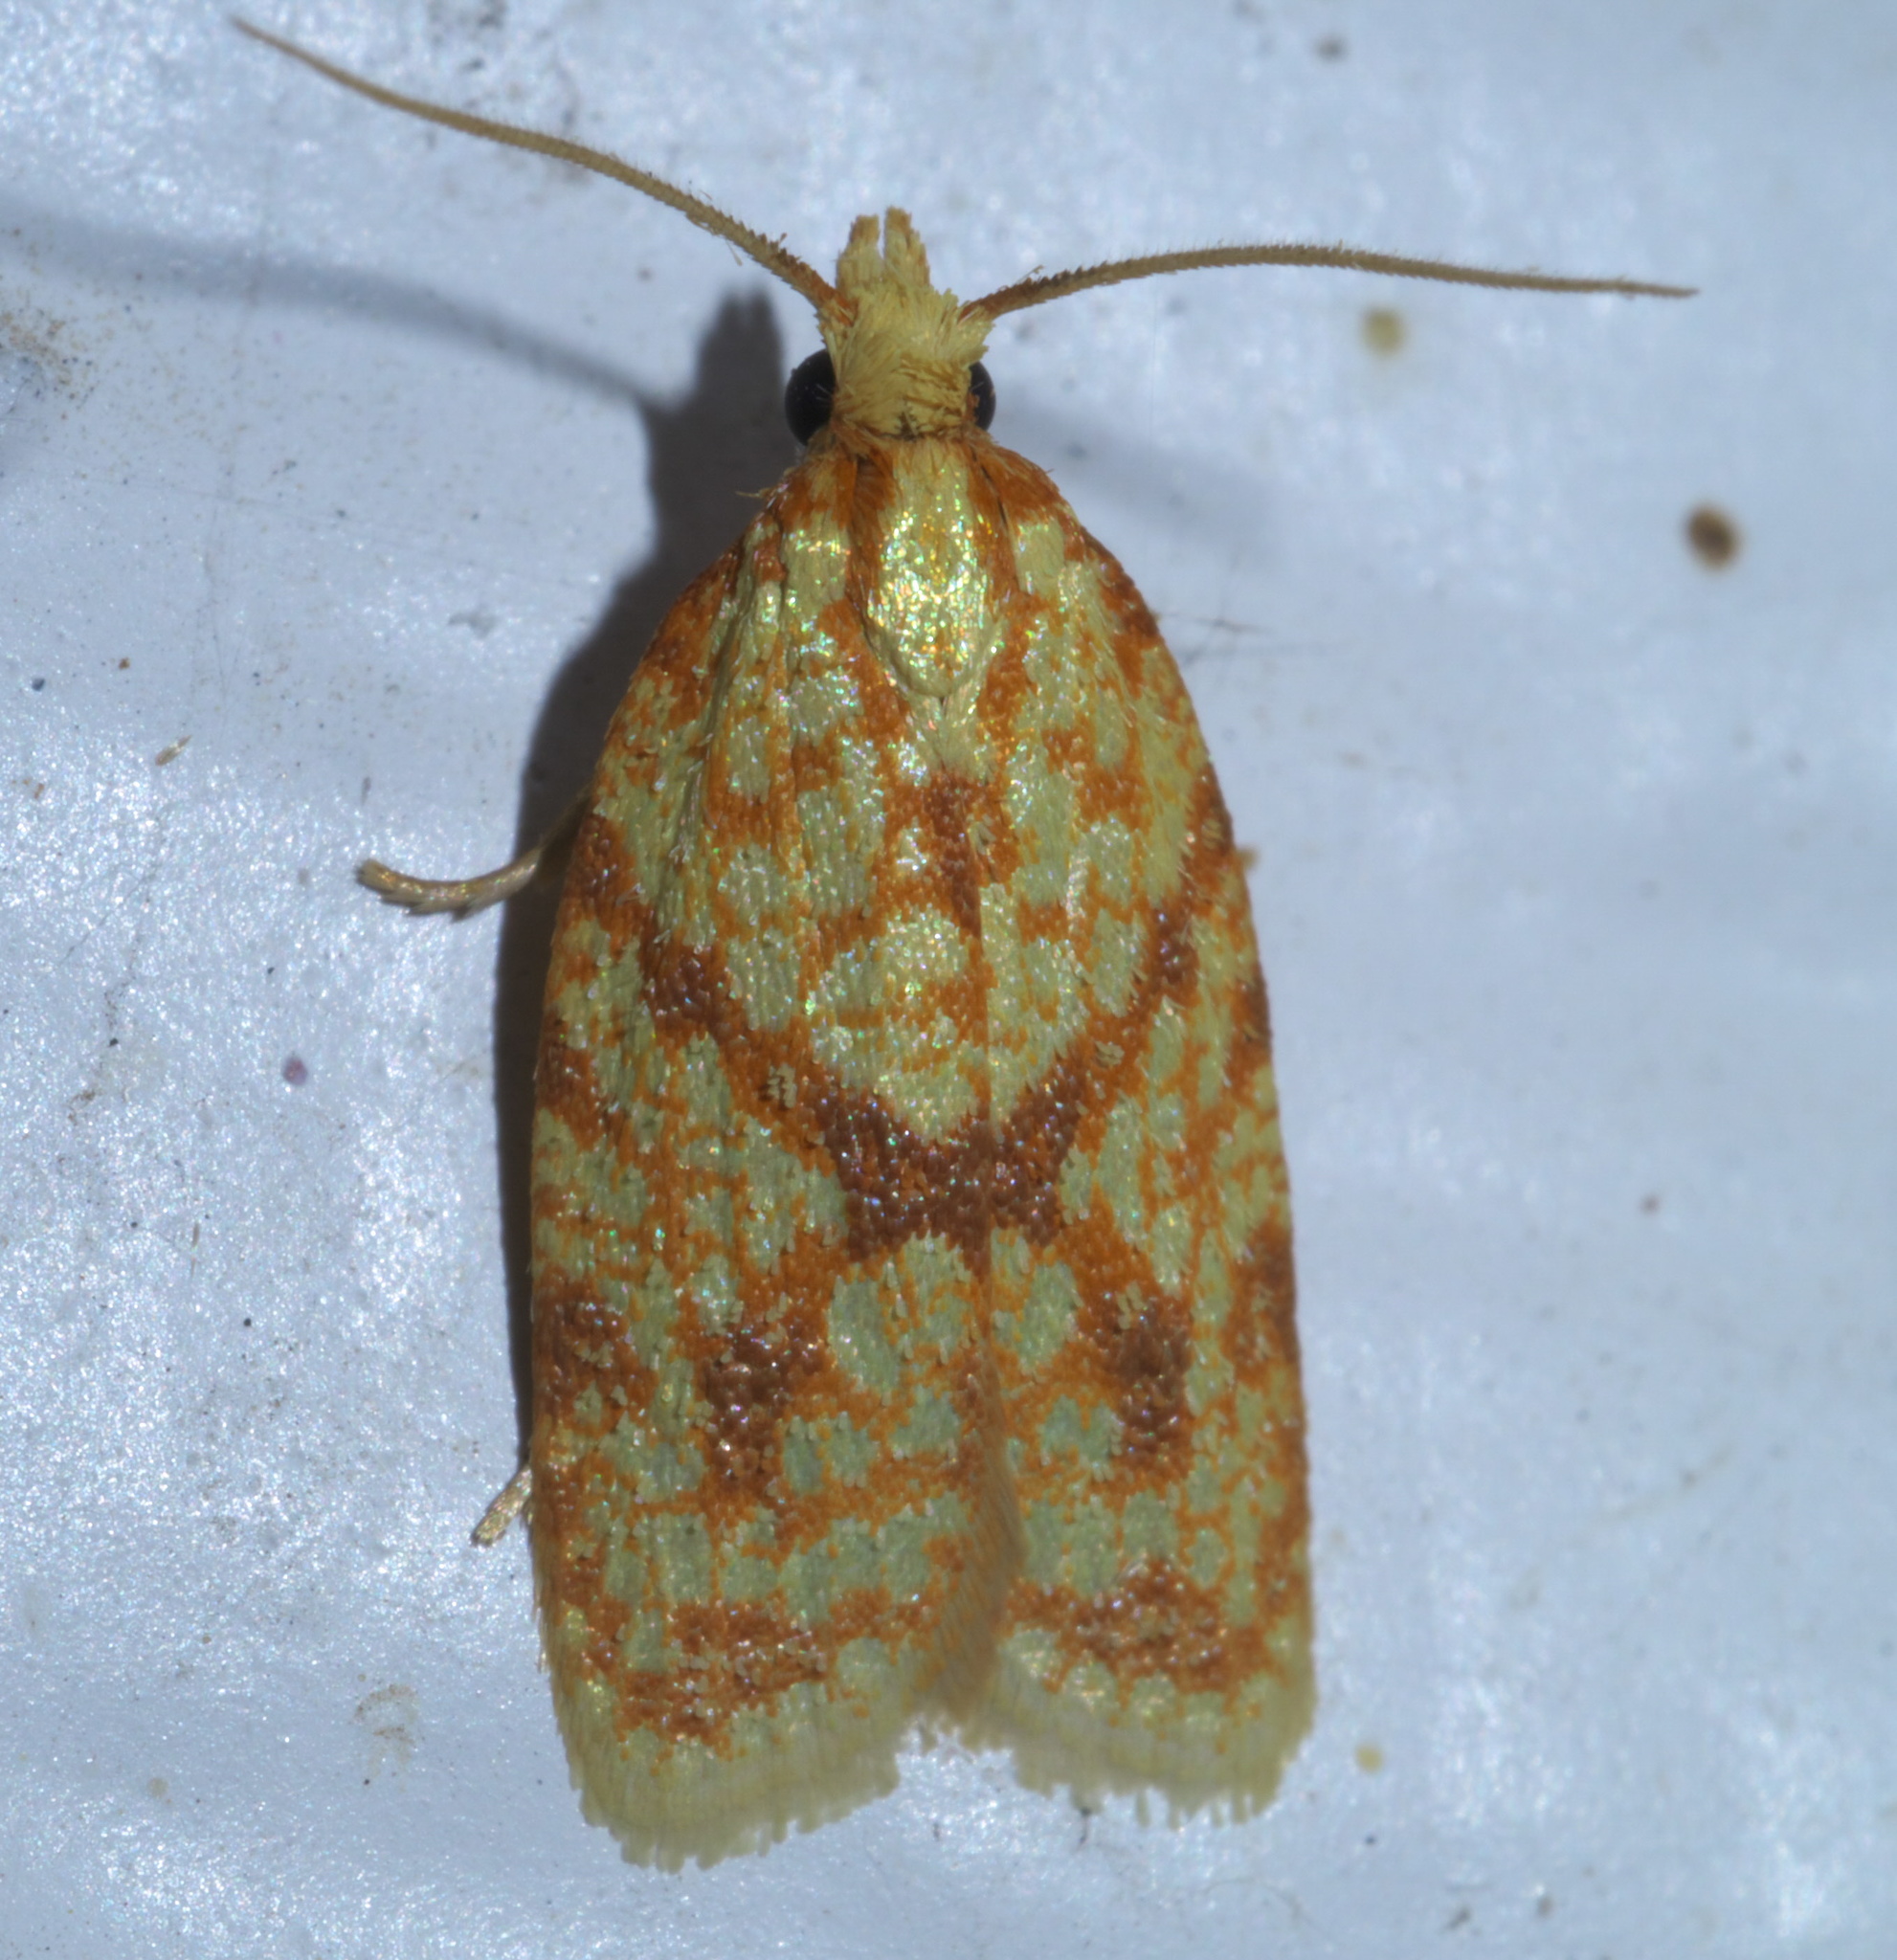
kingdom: Animalia
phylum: Arthropoda
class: Insecta
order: Lepidoptera
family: Tortricidae
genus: Sparganothis
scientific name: Sparganothis sulfureana
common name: Sparganothis fruitworm moth
